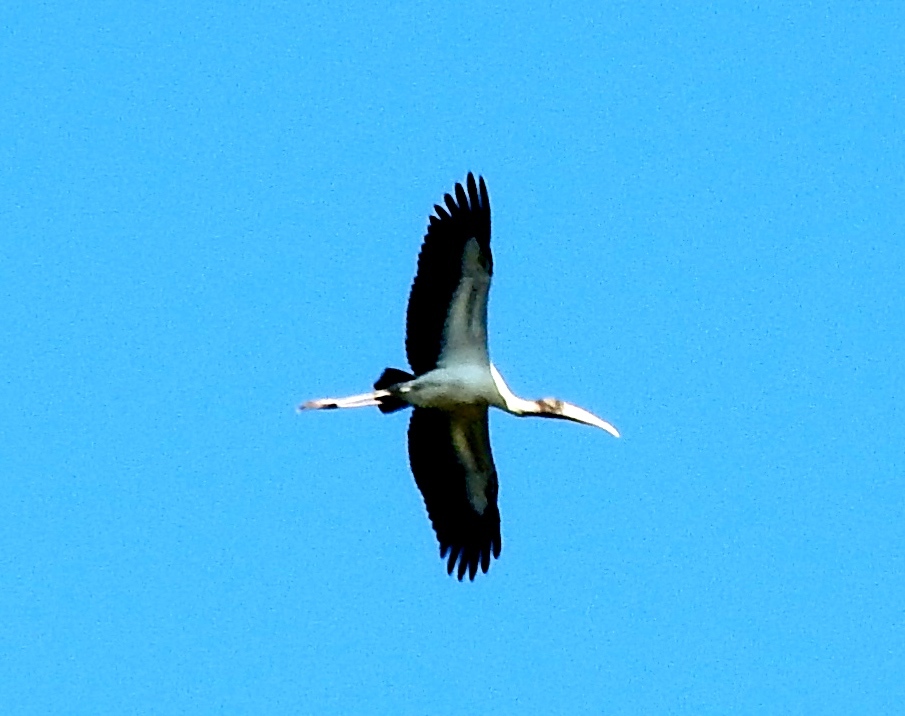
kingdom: Animalia
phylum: Chordata
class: Aves
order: Ciconiiformes
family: Ciconiidae
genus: Mycteria
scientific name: Mycteria americana
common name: Wood stork
